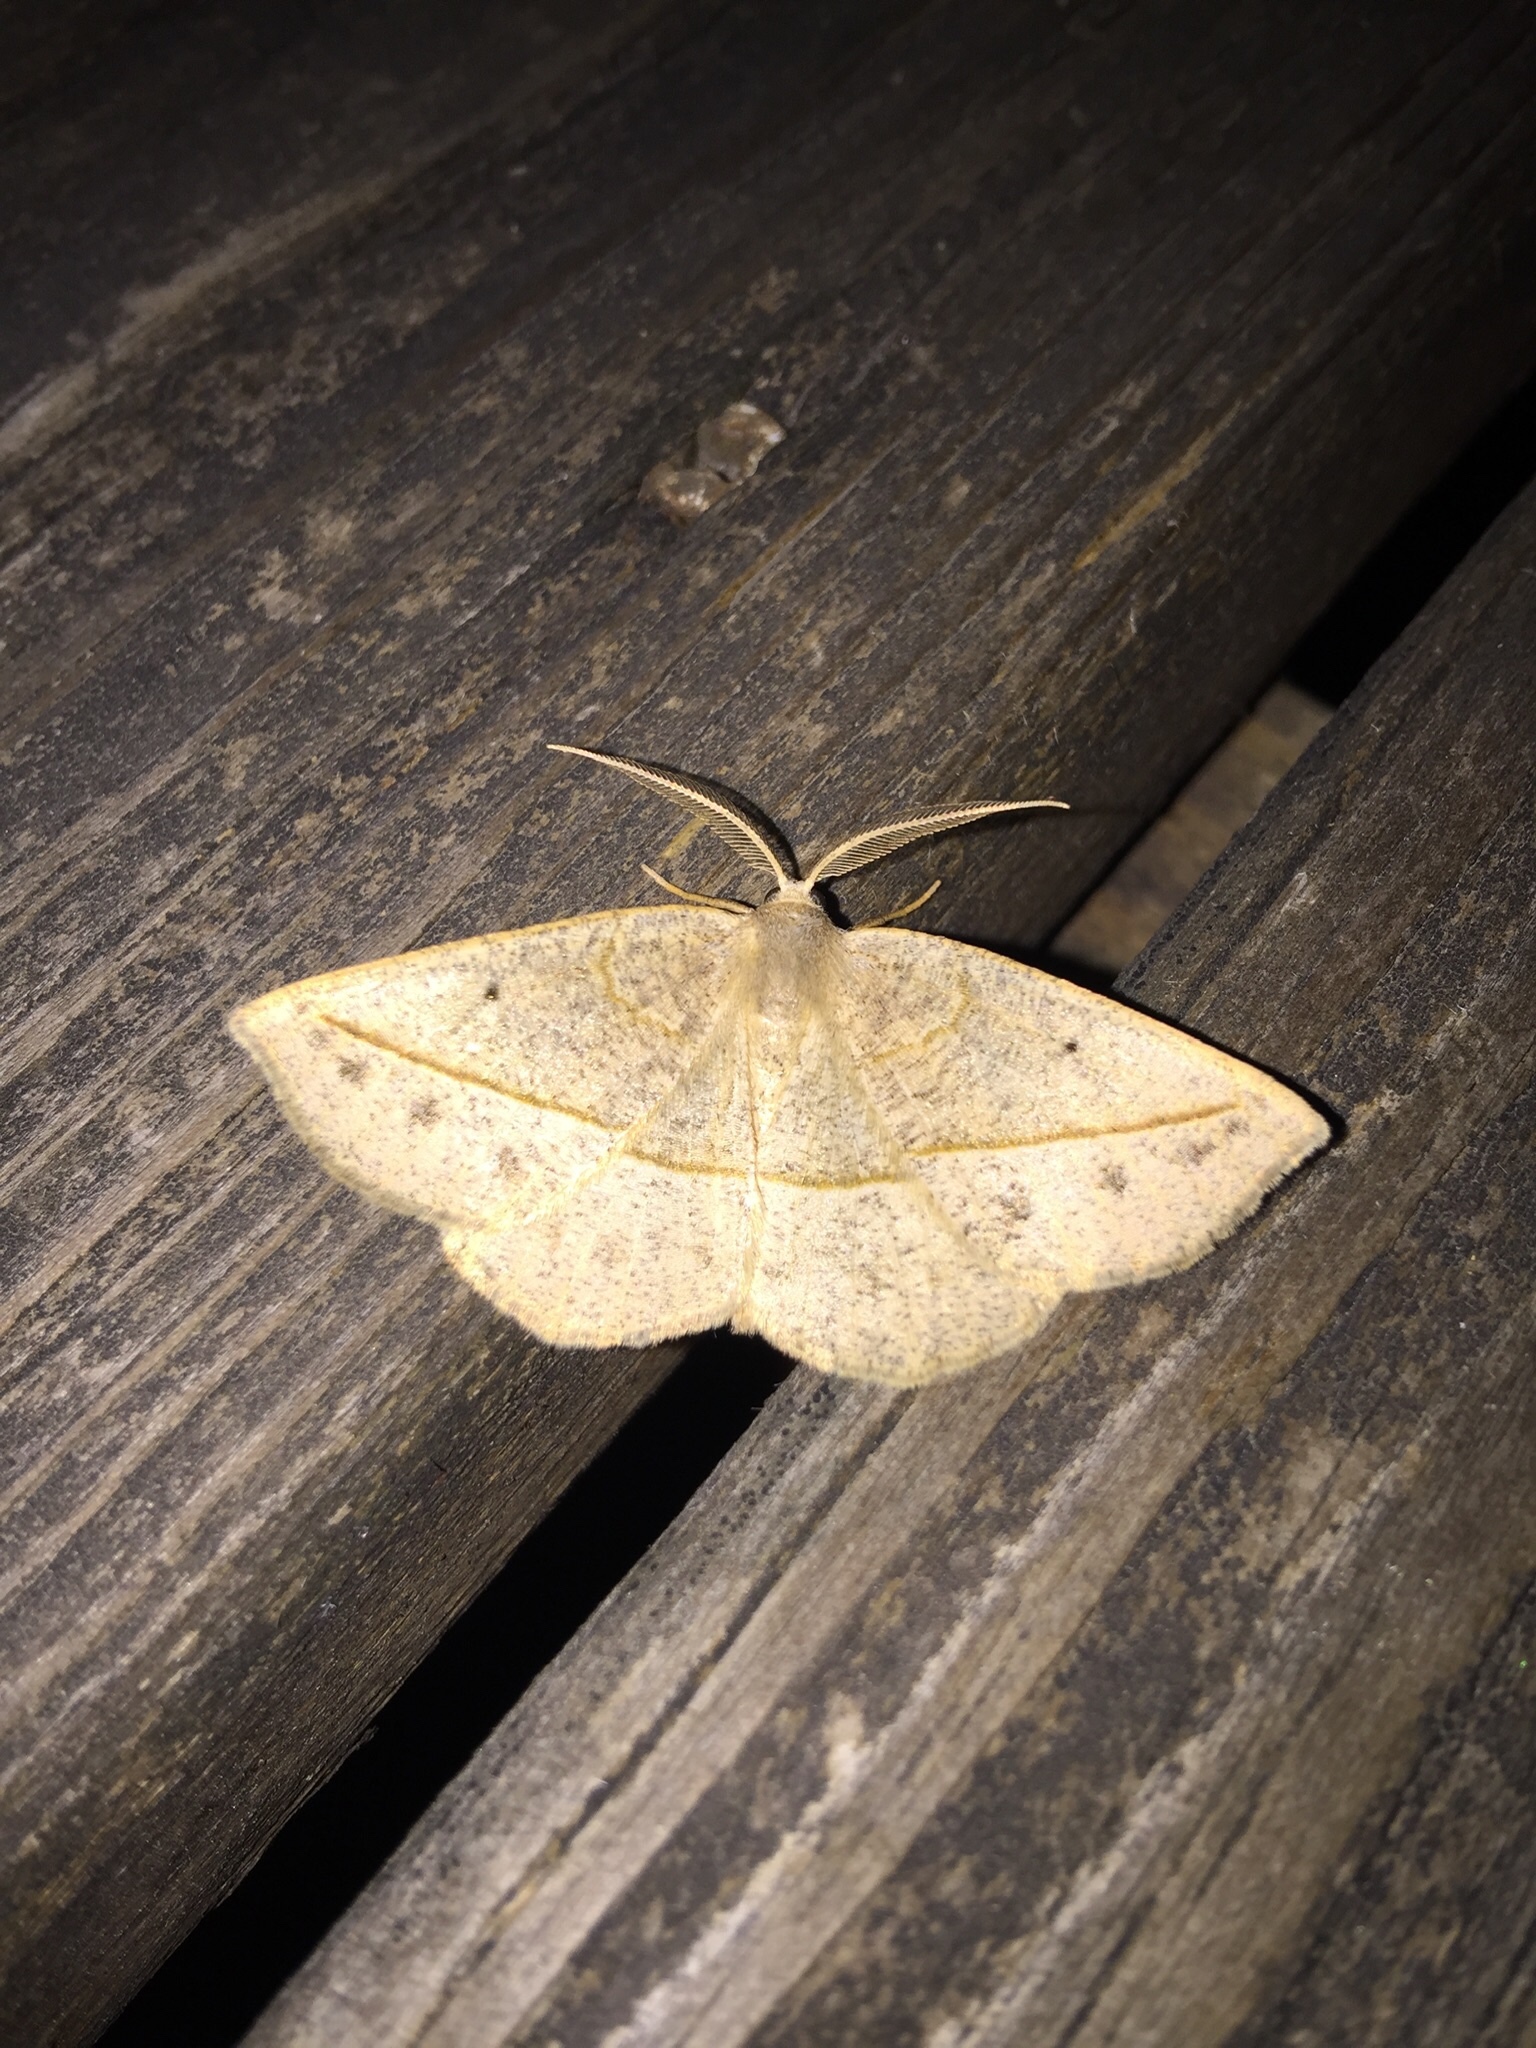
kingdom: Animalia
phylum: Arthropoda
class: Insecta
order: Lepidoptera
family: Geometridae
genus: Eusarca
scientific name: Eusarca confusaria
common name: Confused eusarca
